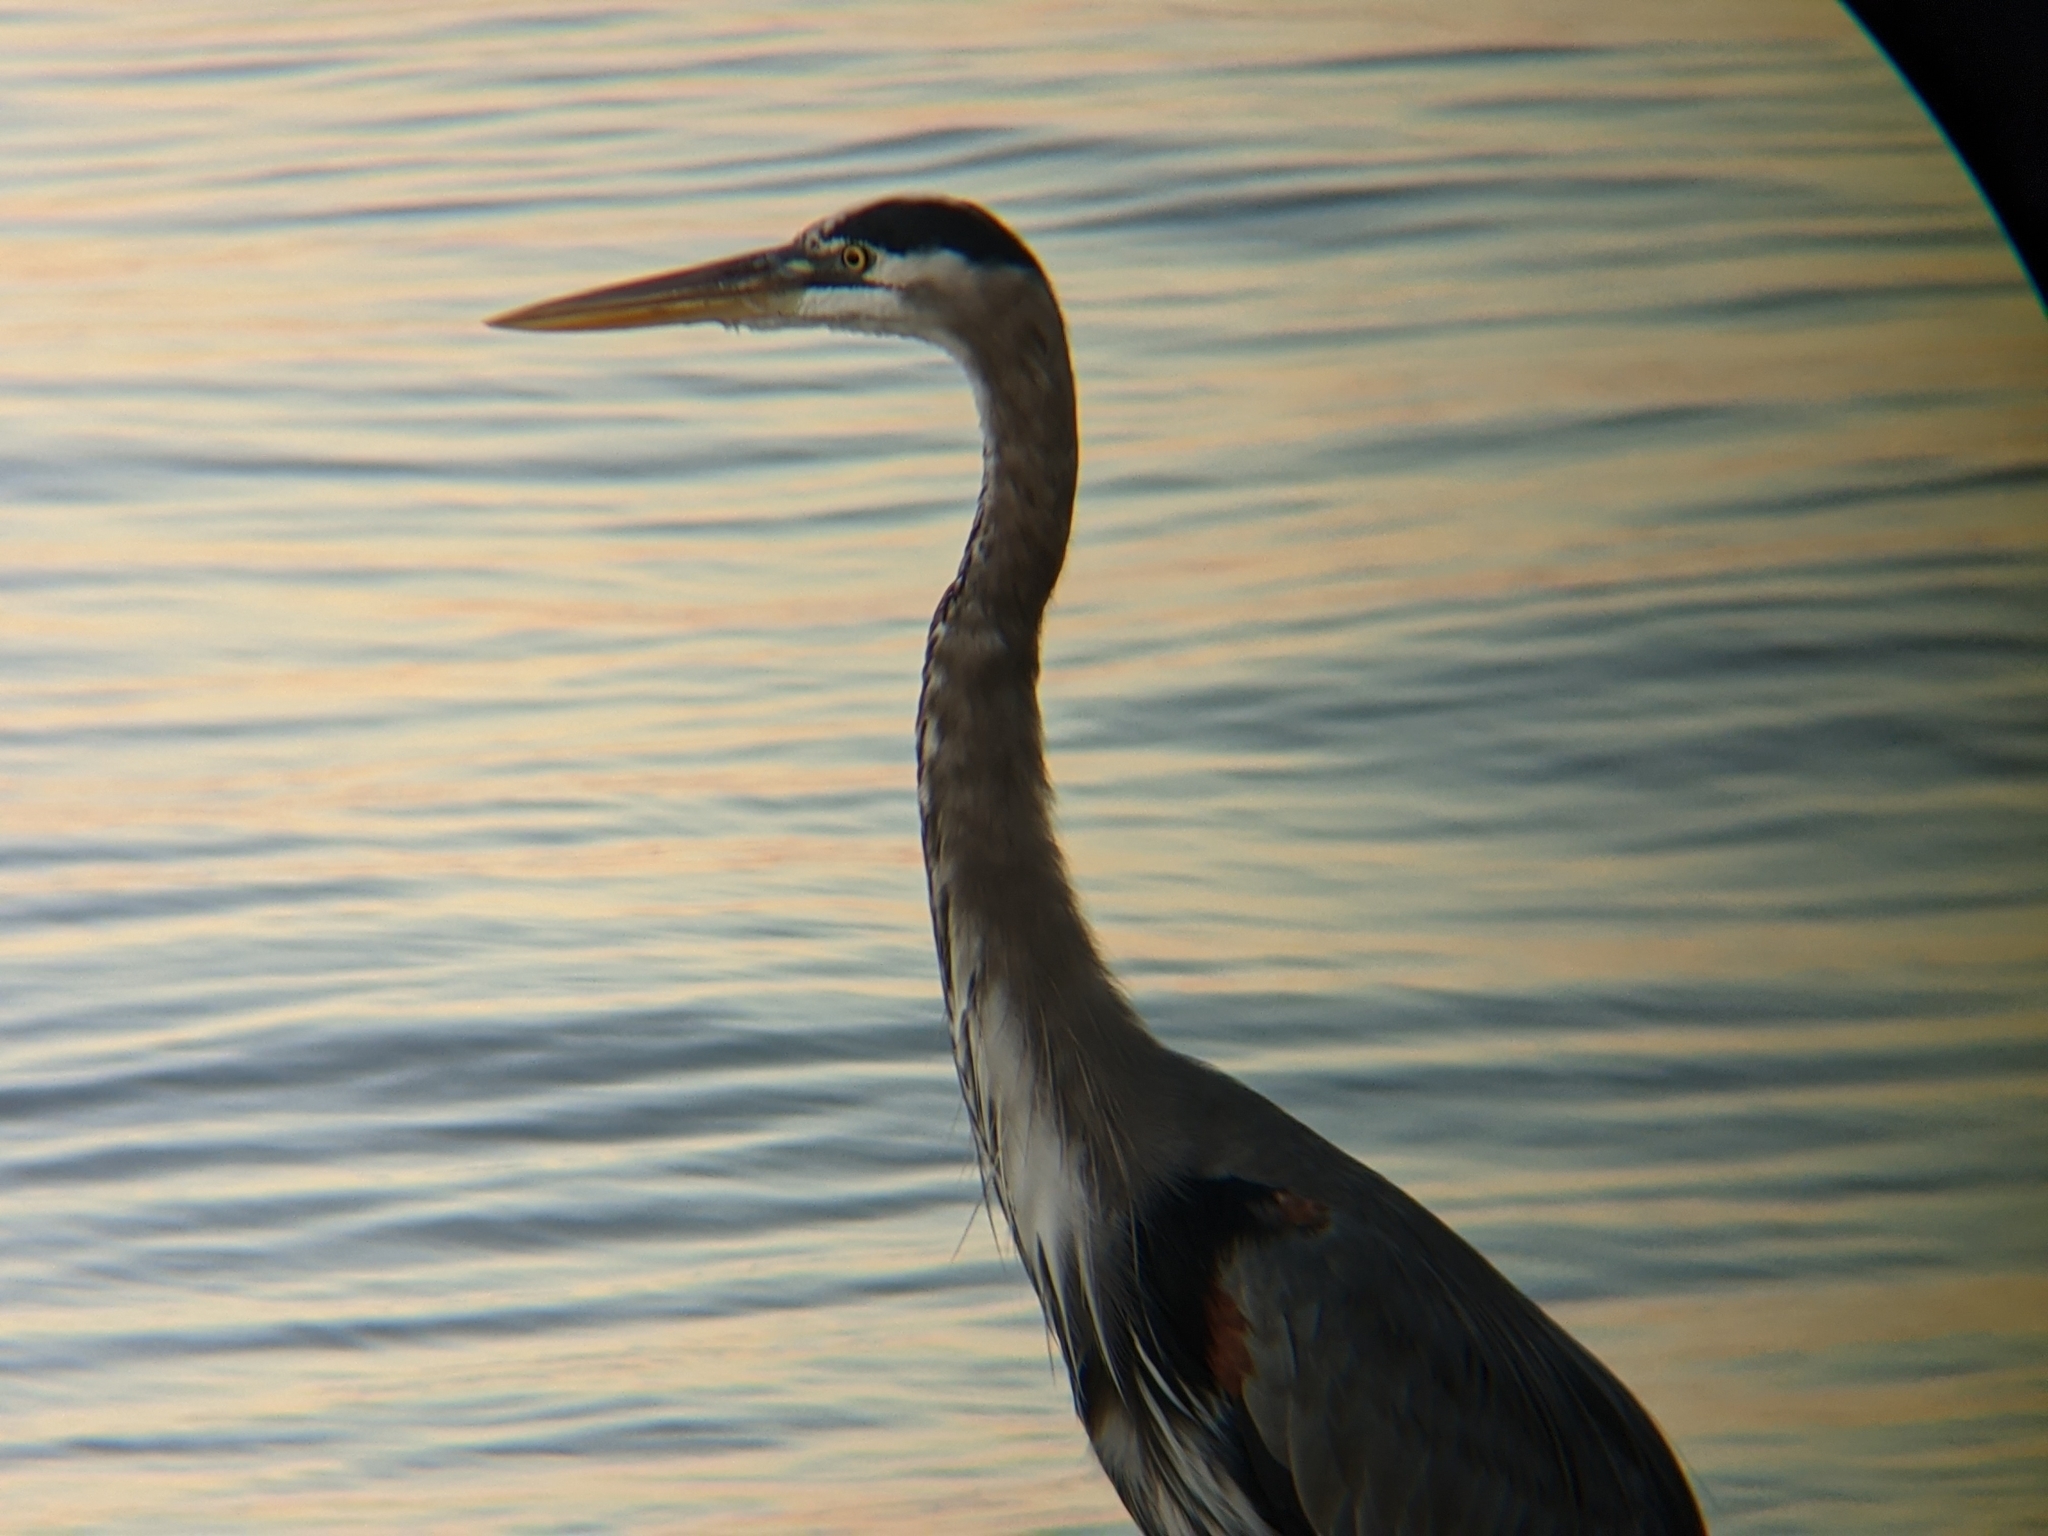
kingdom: Animalia
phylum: Chordata
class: Aves
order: Pelecaniformes
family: Ardeidae
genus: Ardea
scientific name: Ardea herodias
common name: Great blue heron
